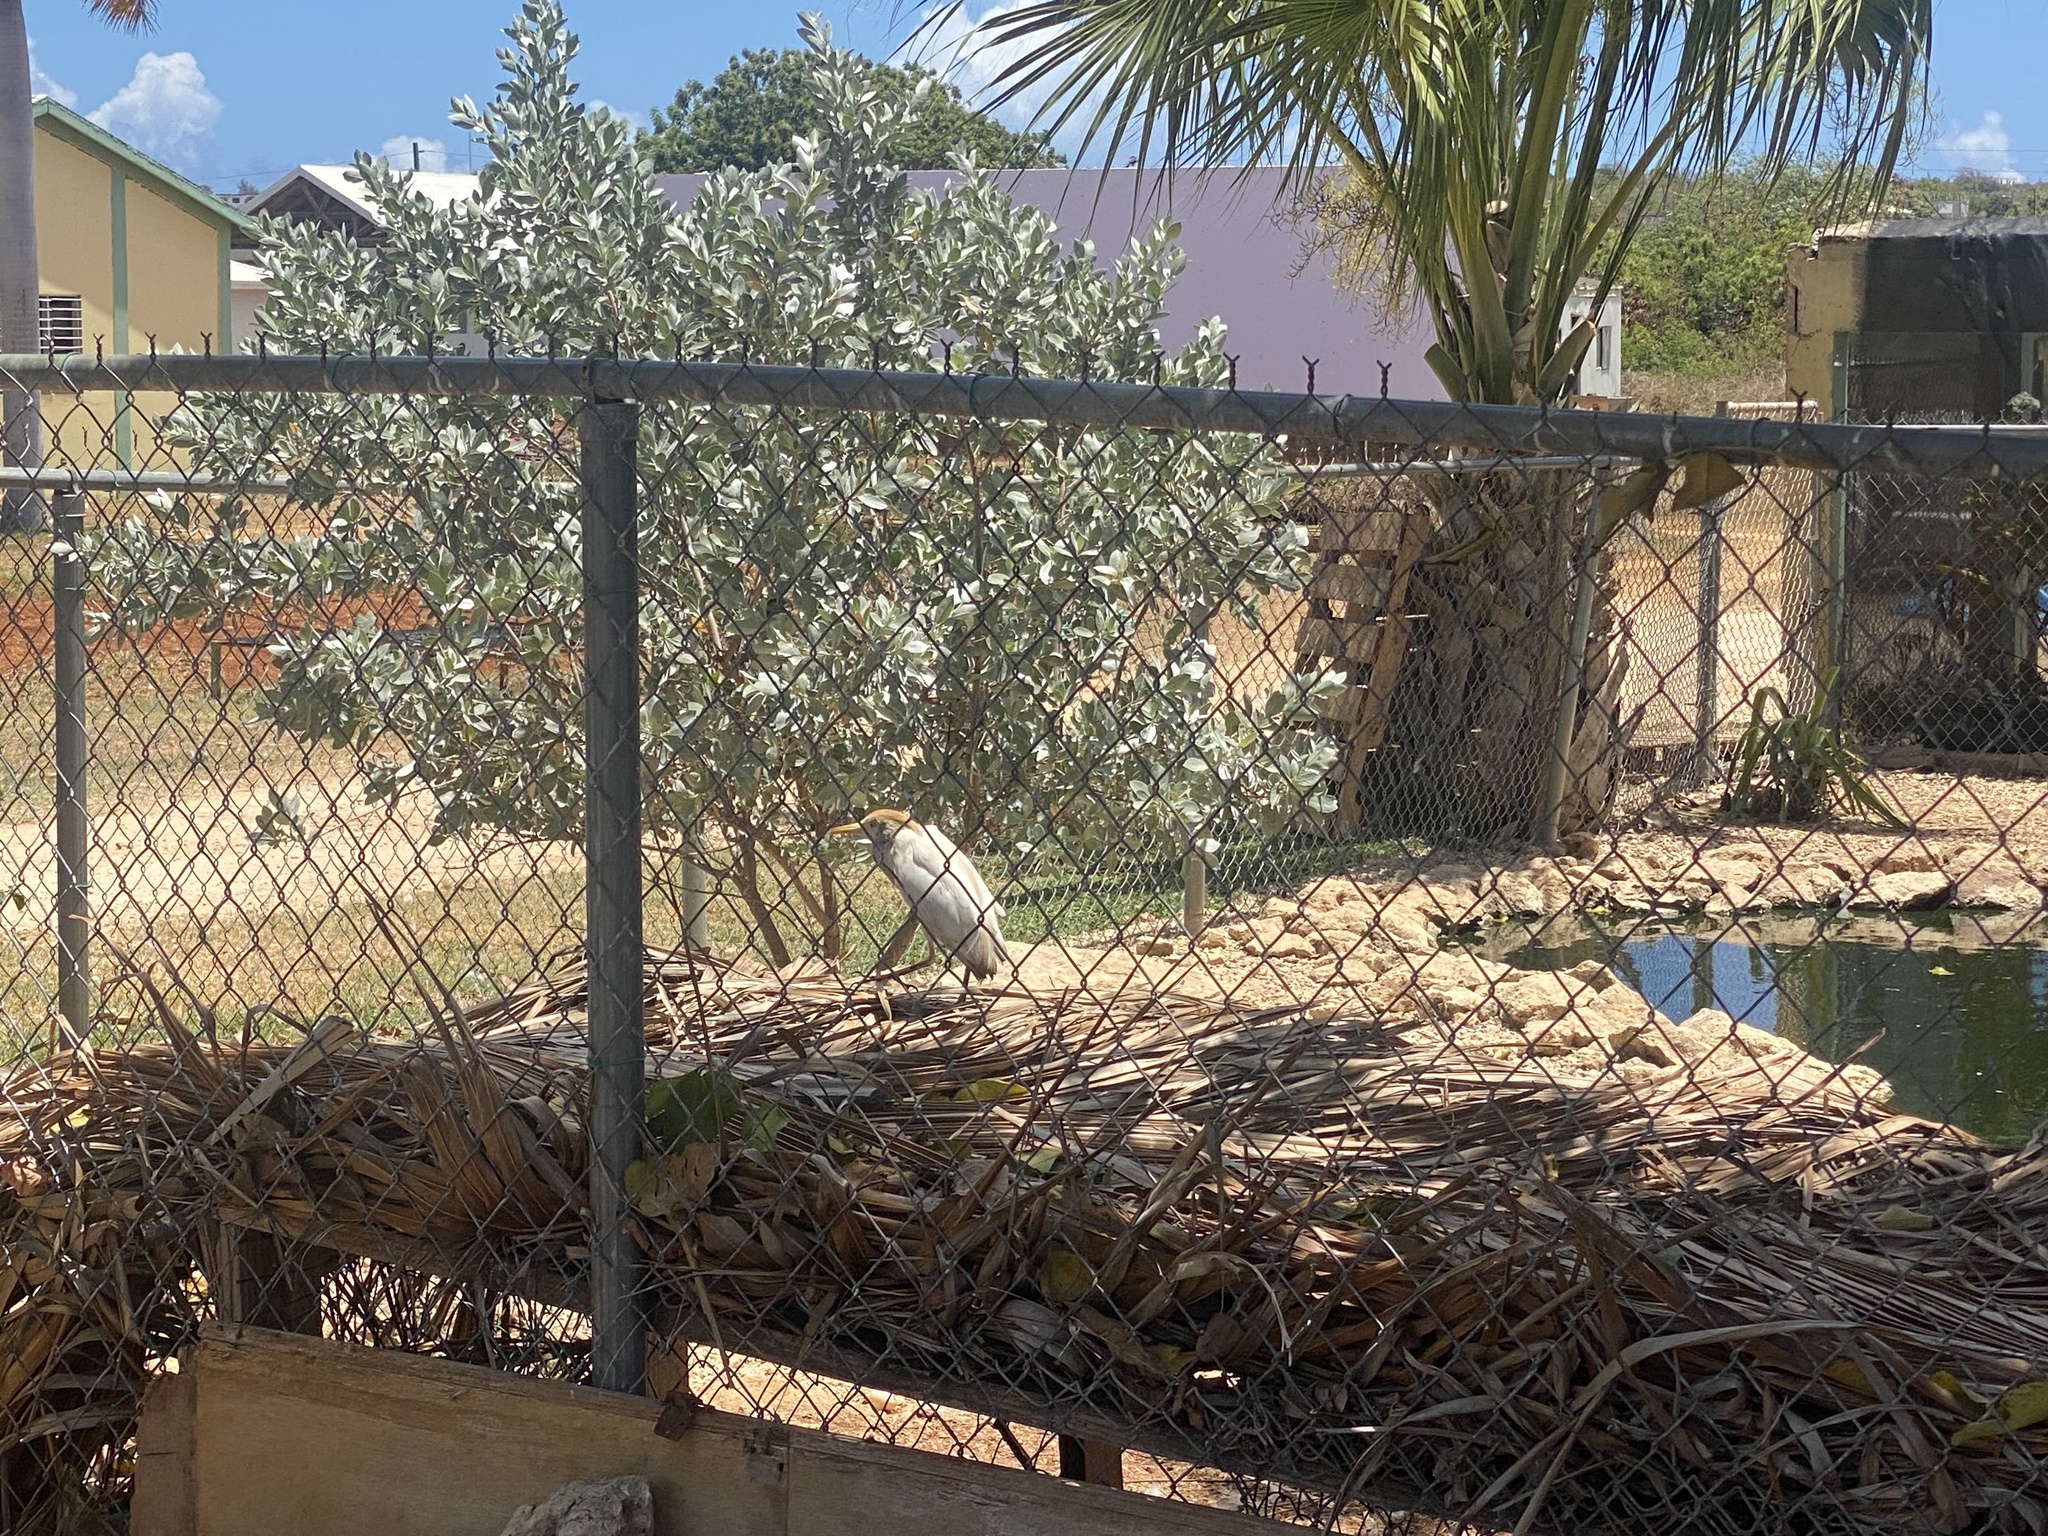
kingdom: Animalia
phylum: Chordata
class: Aves
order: Pelecaniformes
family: Ardeidae
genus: Bubulcus
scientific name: Bubulcus ibis
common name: Cattle egret
